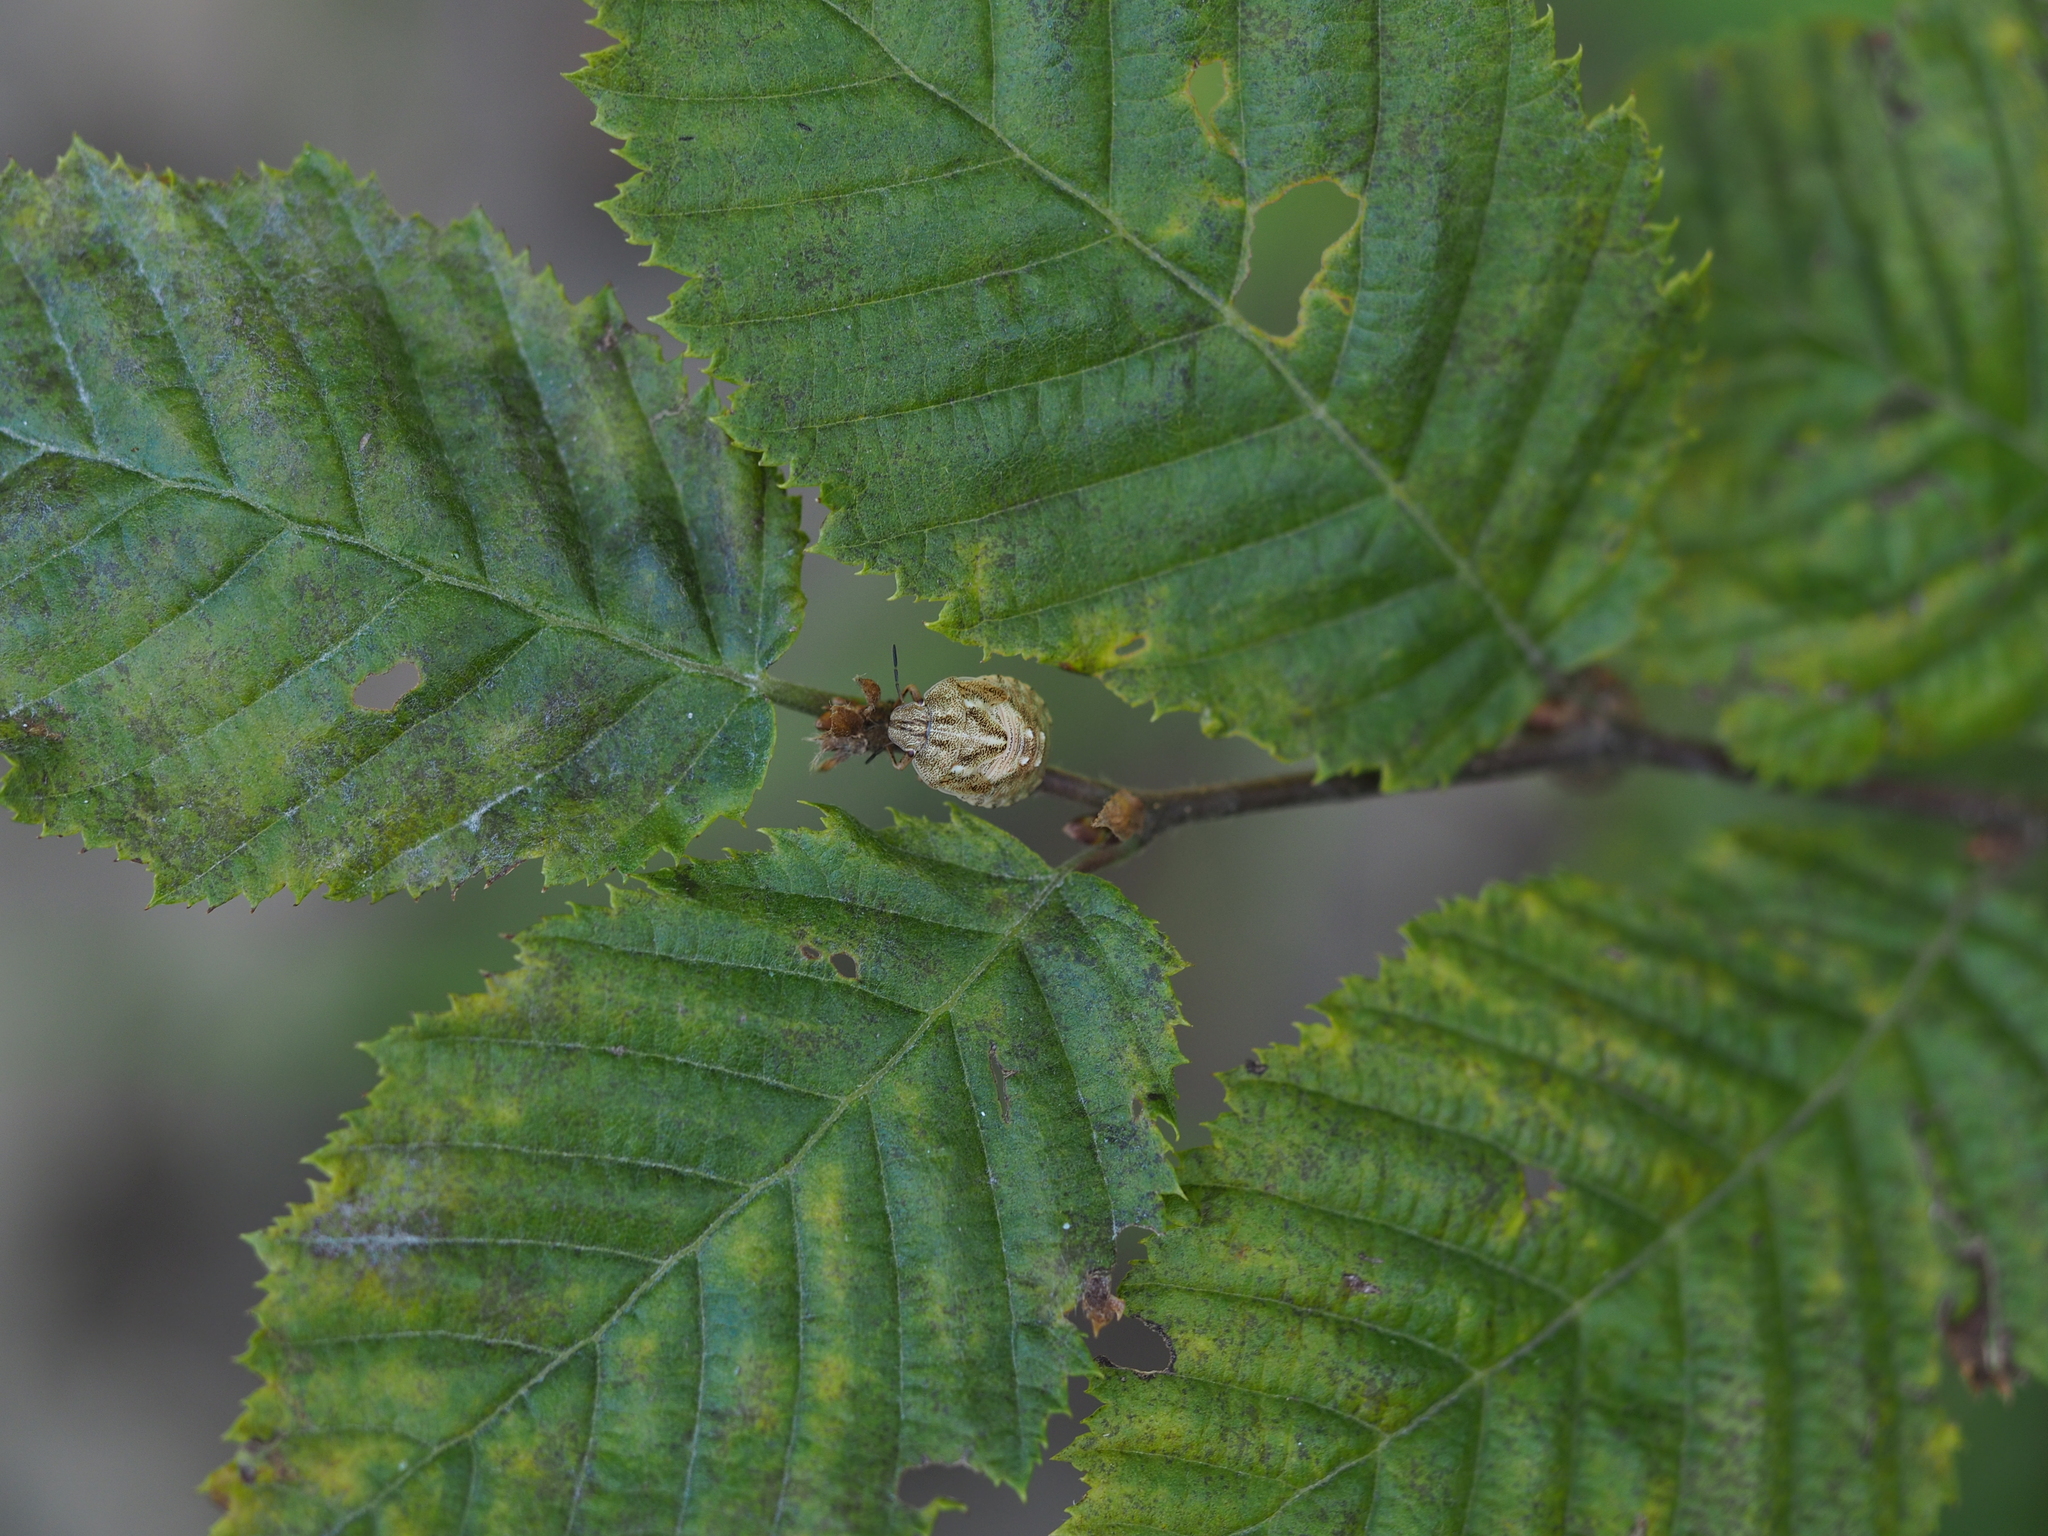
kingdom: Animalia
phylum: Arthropoda
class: Insecta
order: Hemiptera
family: Scutelleridae
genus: Eurygaster
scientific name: Eurygaster testudinaria
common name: Tortoise bug
